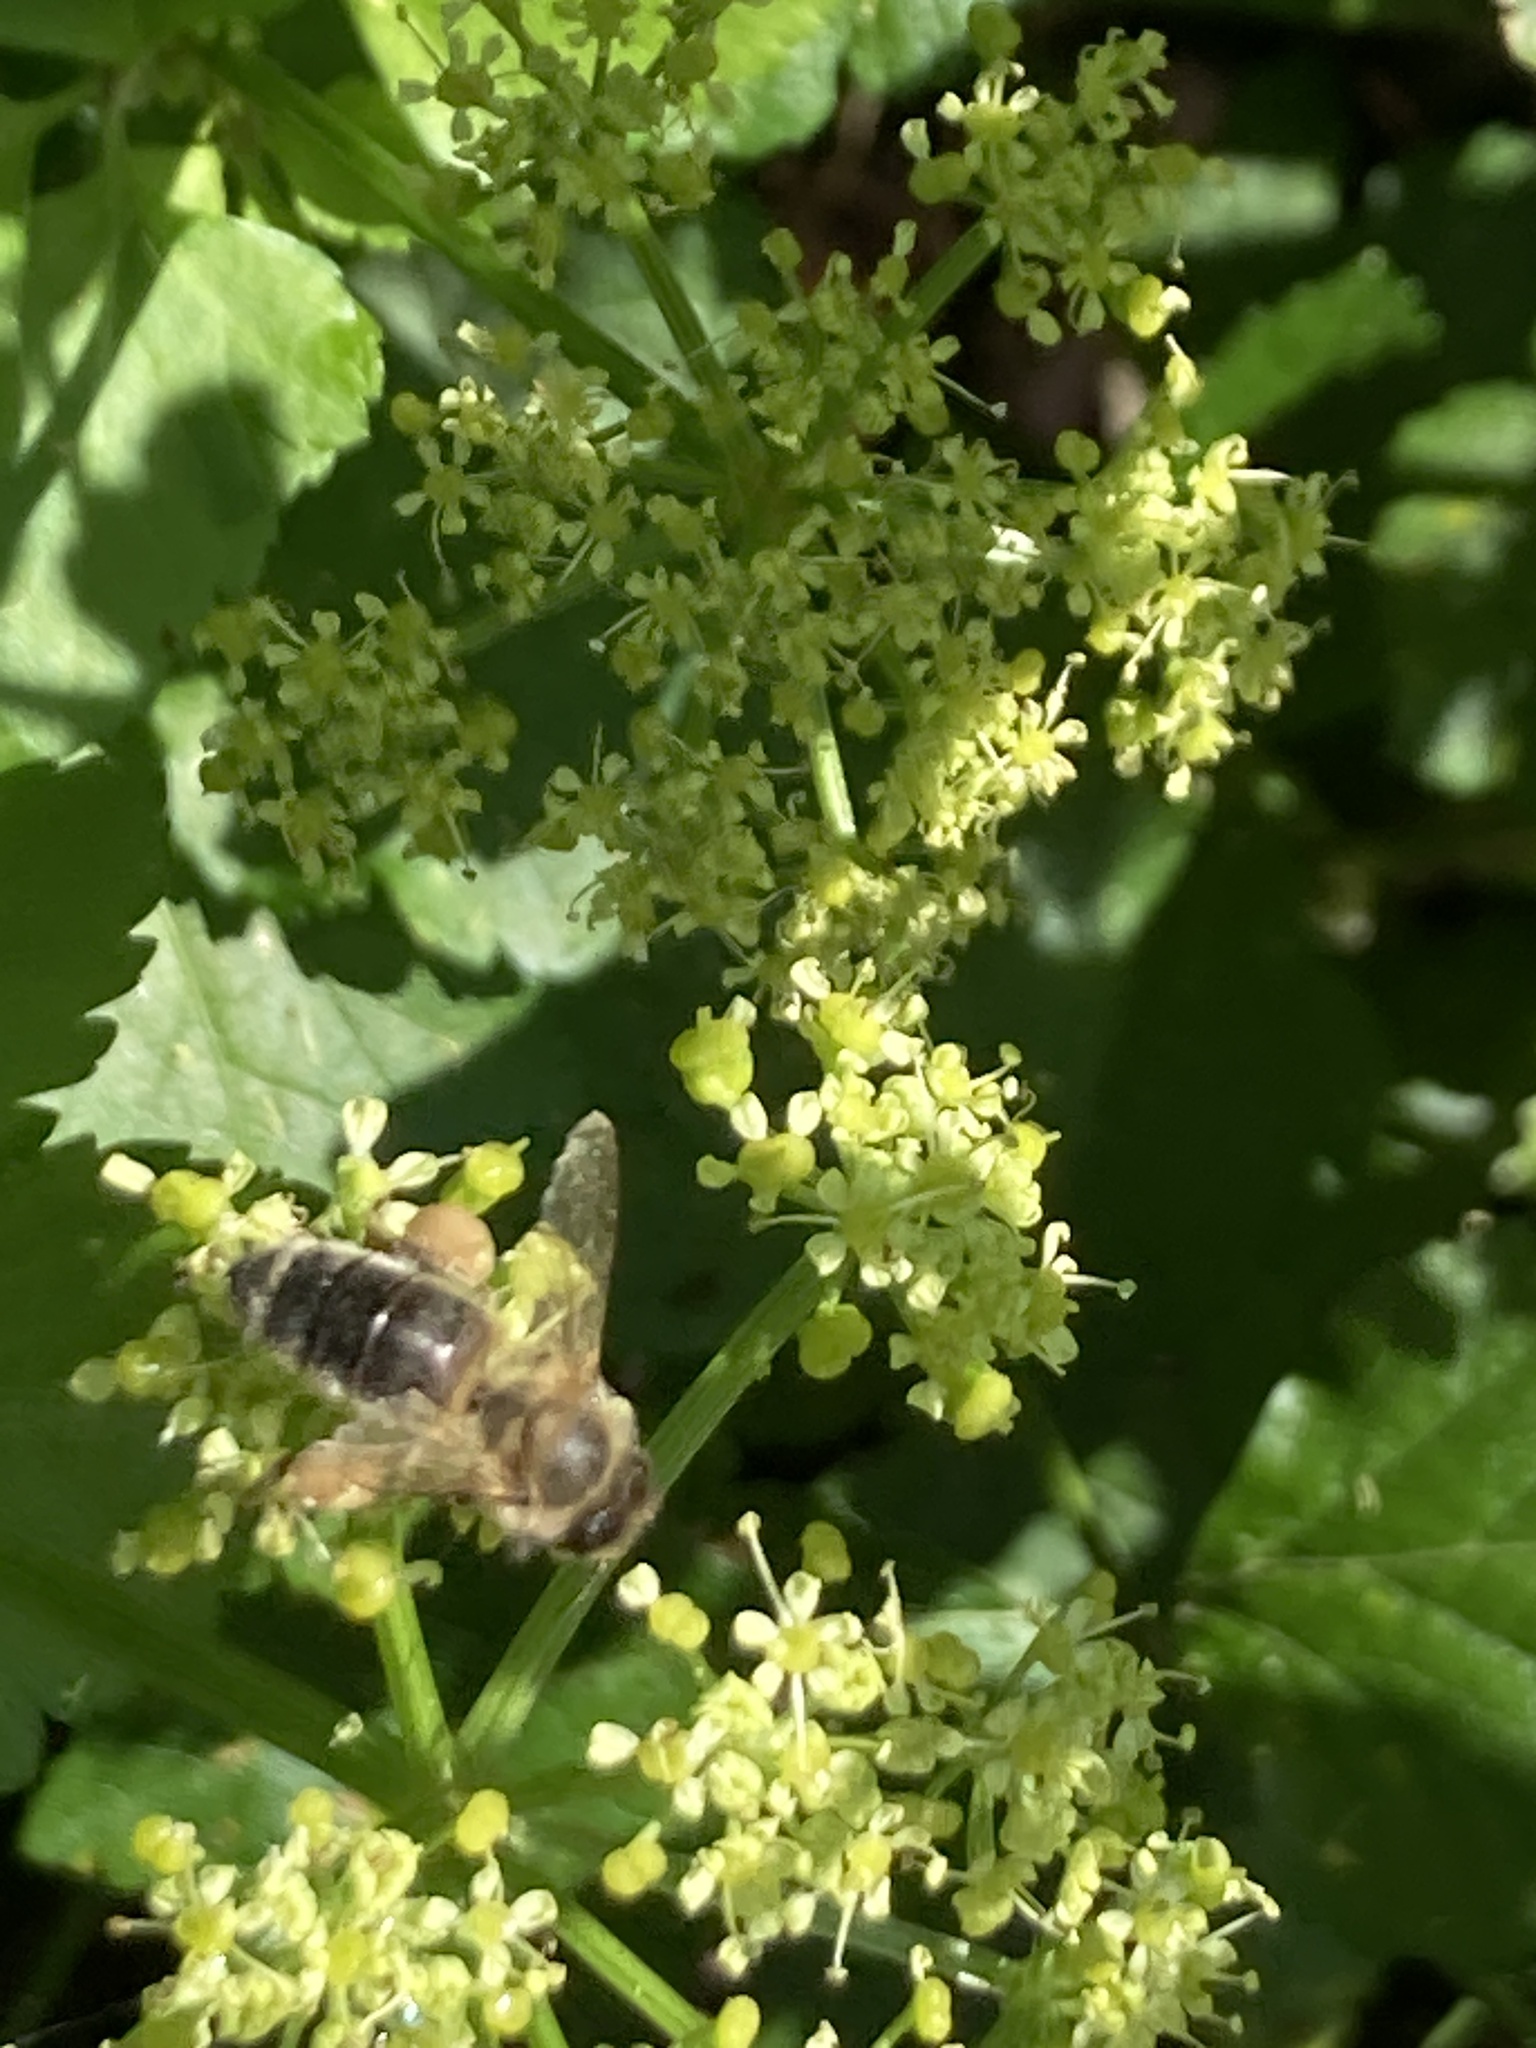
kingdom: Animalia
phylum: Arthropoda
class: Insecta
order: Hymenoptera
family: Apidae
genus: Apis
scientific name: Apis mellifera
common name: Honey bee
